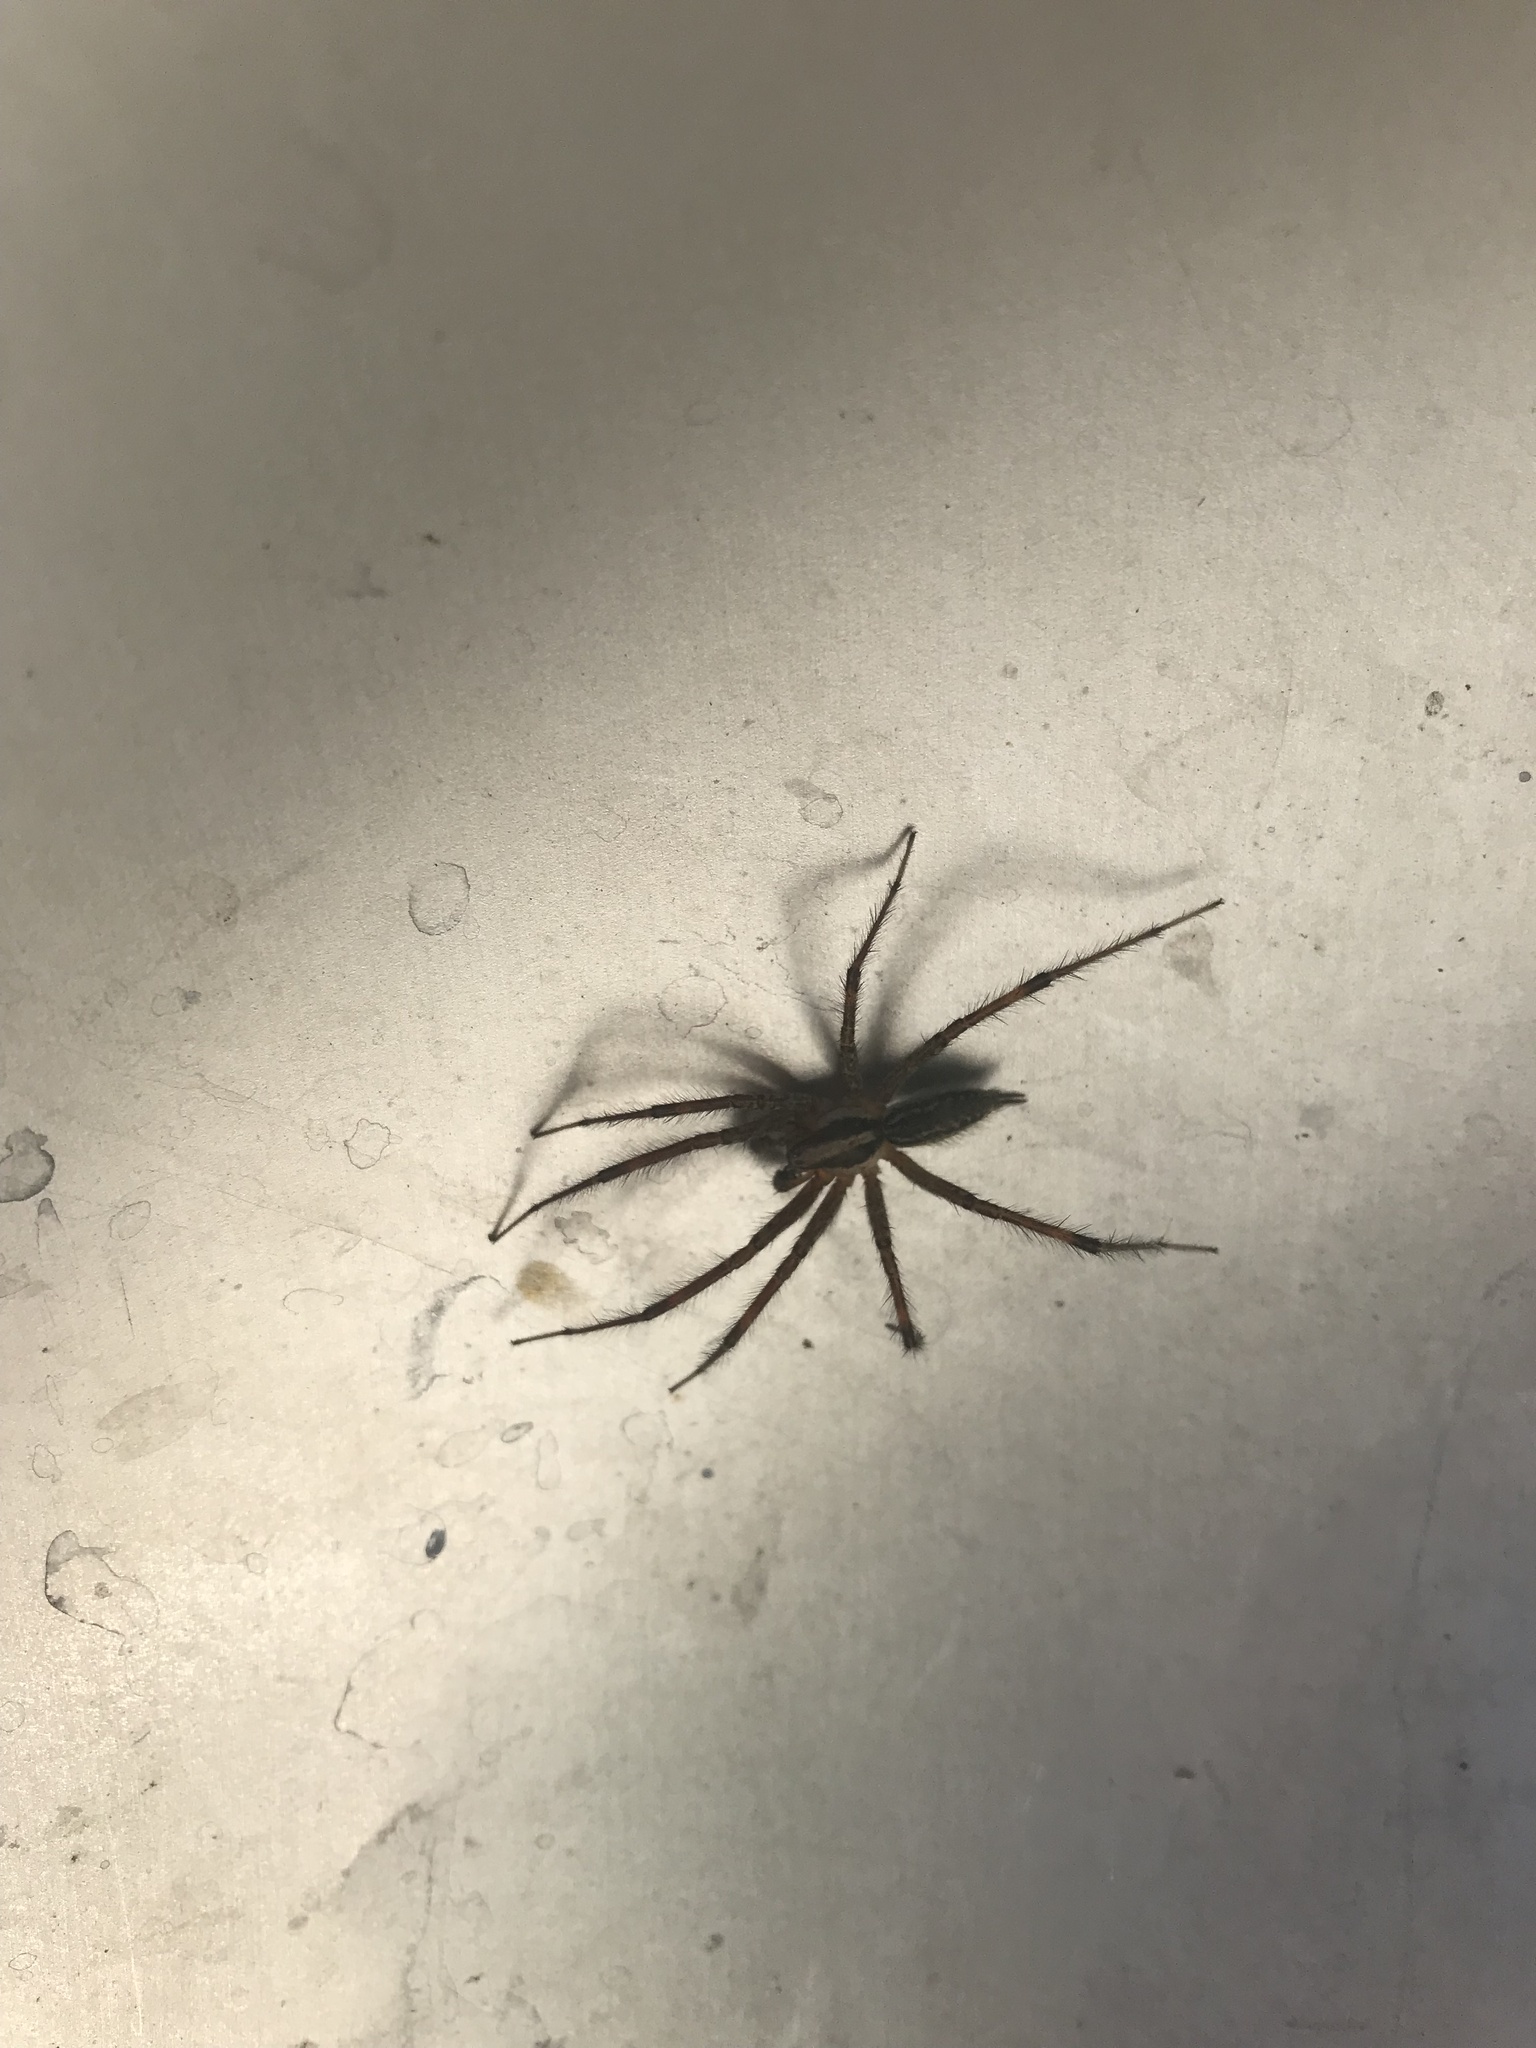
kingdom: Animalia
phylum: Arthropoda
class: Arachnida
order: Araneae
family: Agelenidae
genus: Agelenopsis
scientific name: Agelenopsis
